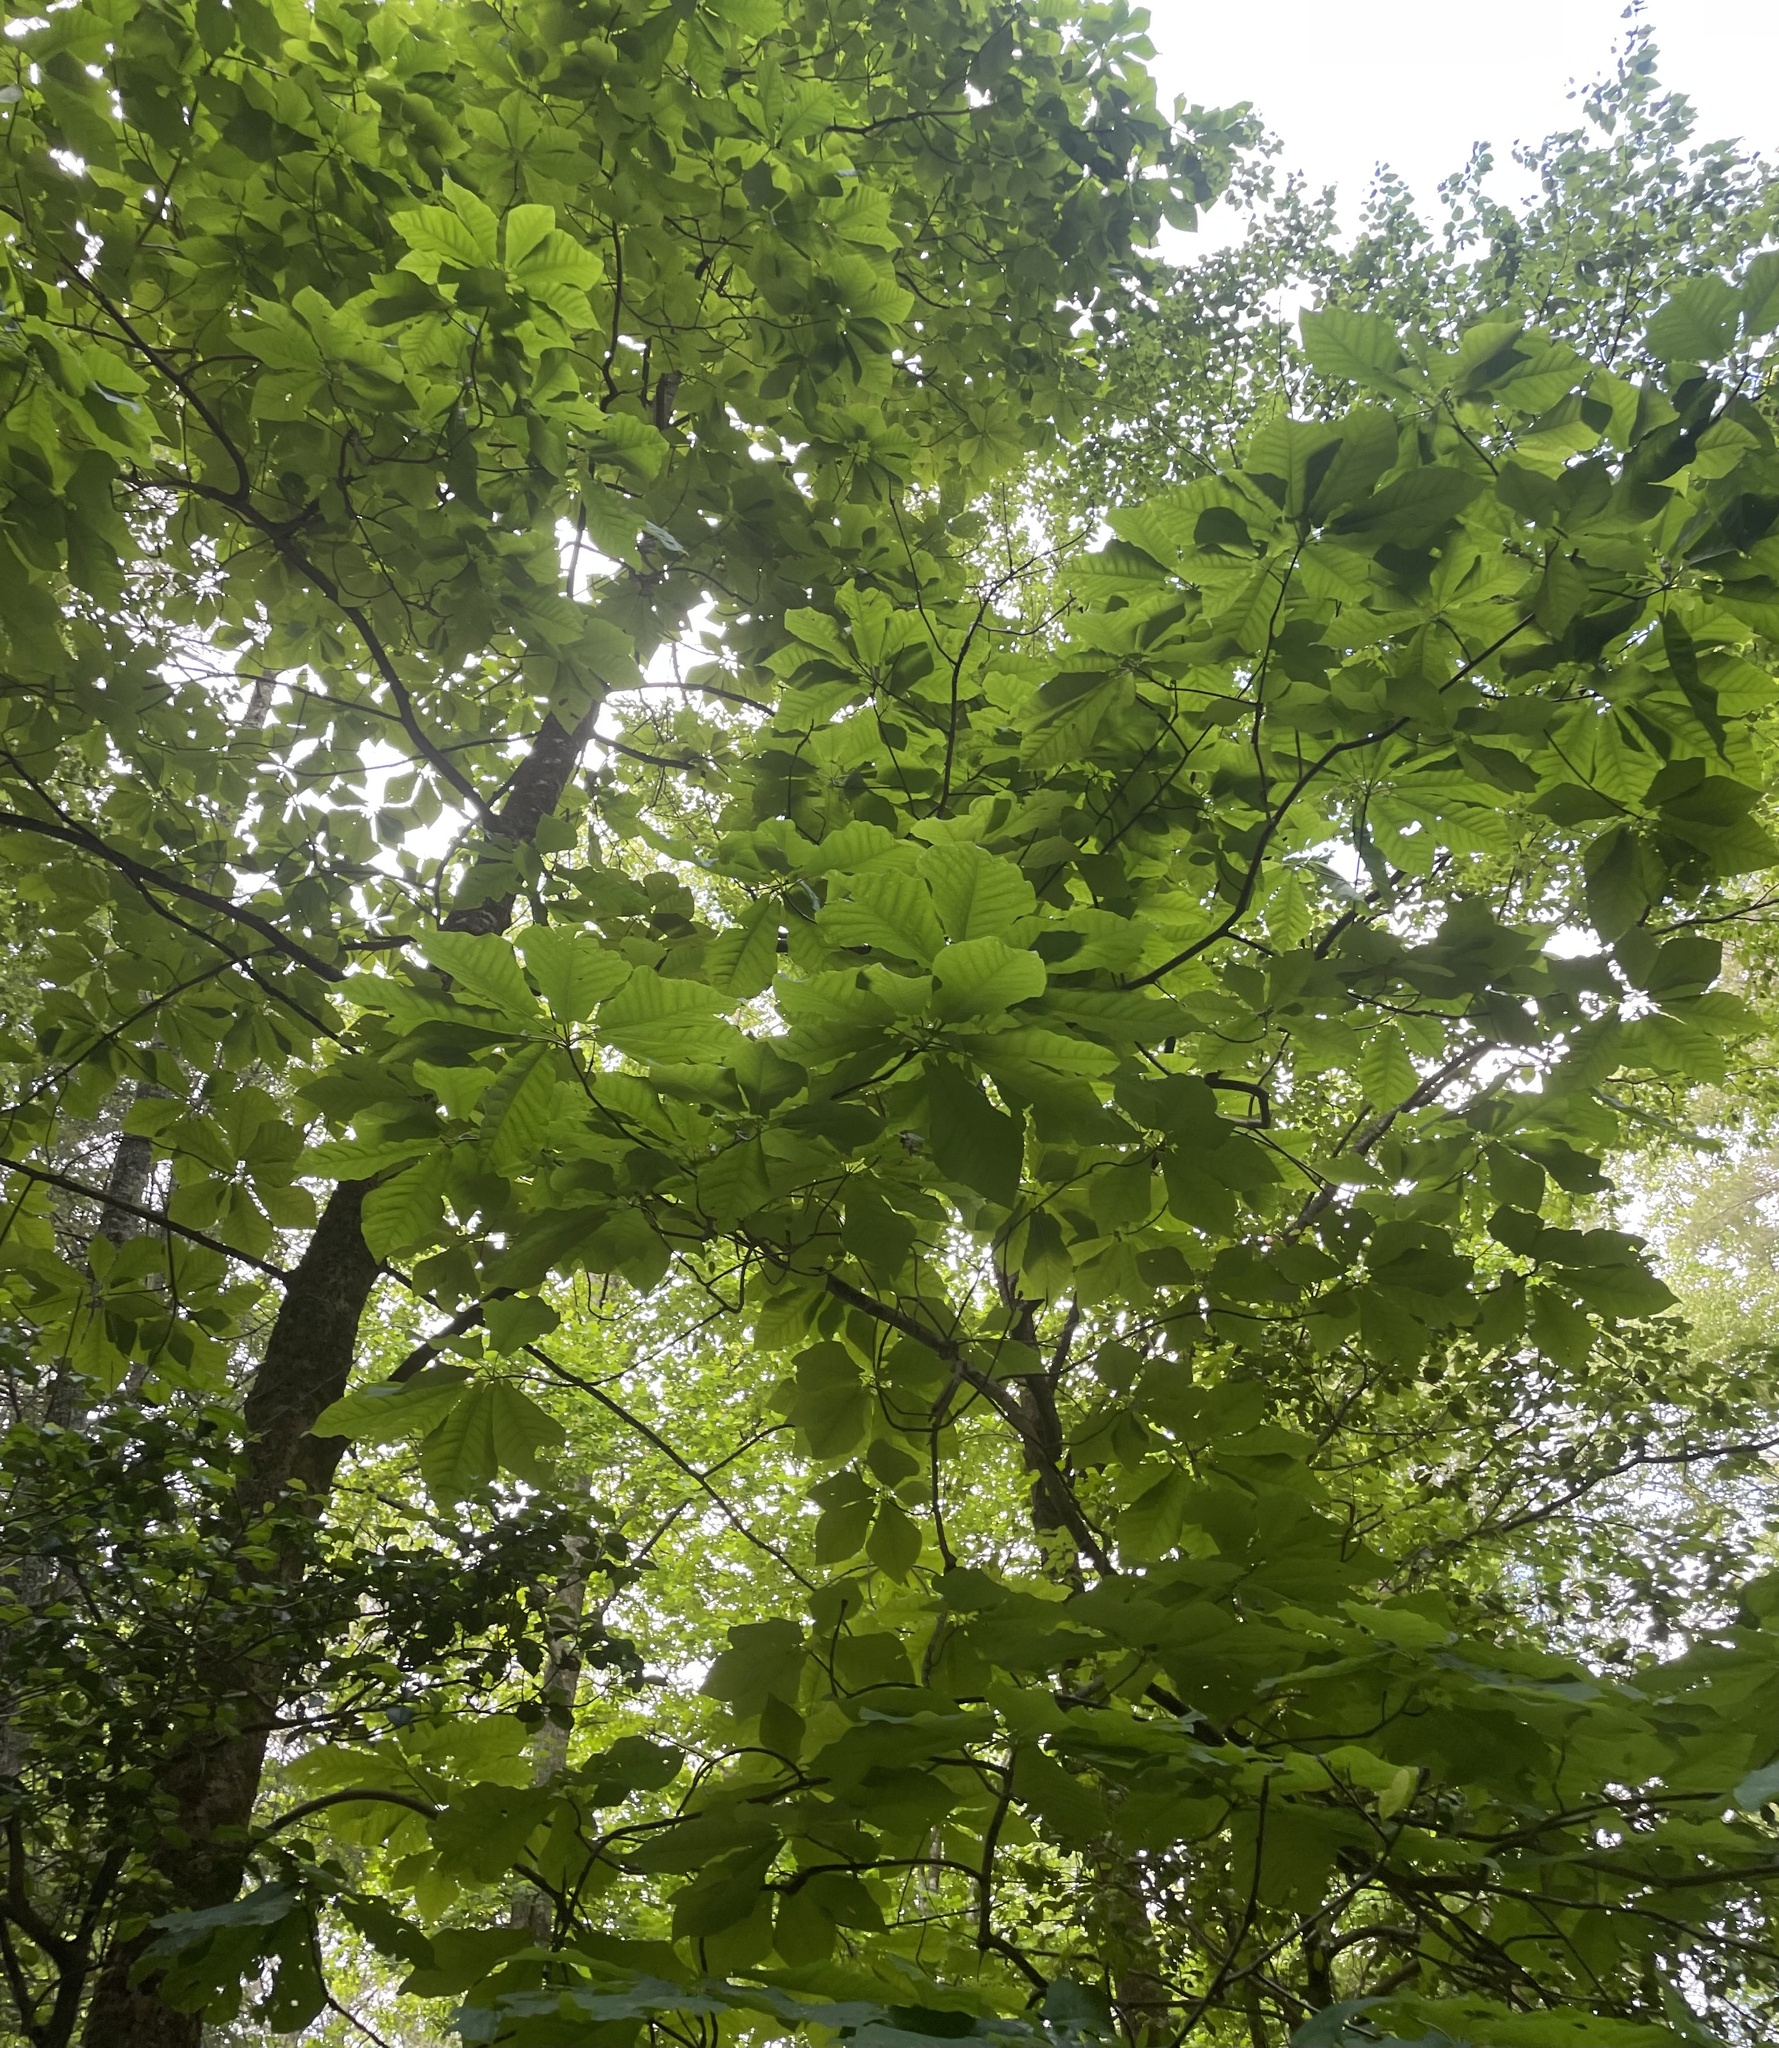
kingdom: Plantae
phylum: Tracheophyta
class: Magnoliopsida
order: Magnoliales
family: Magnoliaceae
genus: Magnolia
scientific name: Magnolia fraseri
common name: Fraser's magnolia
